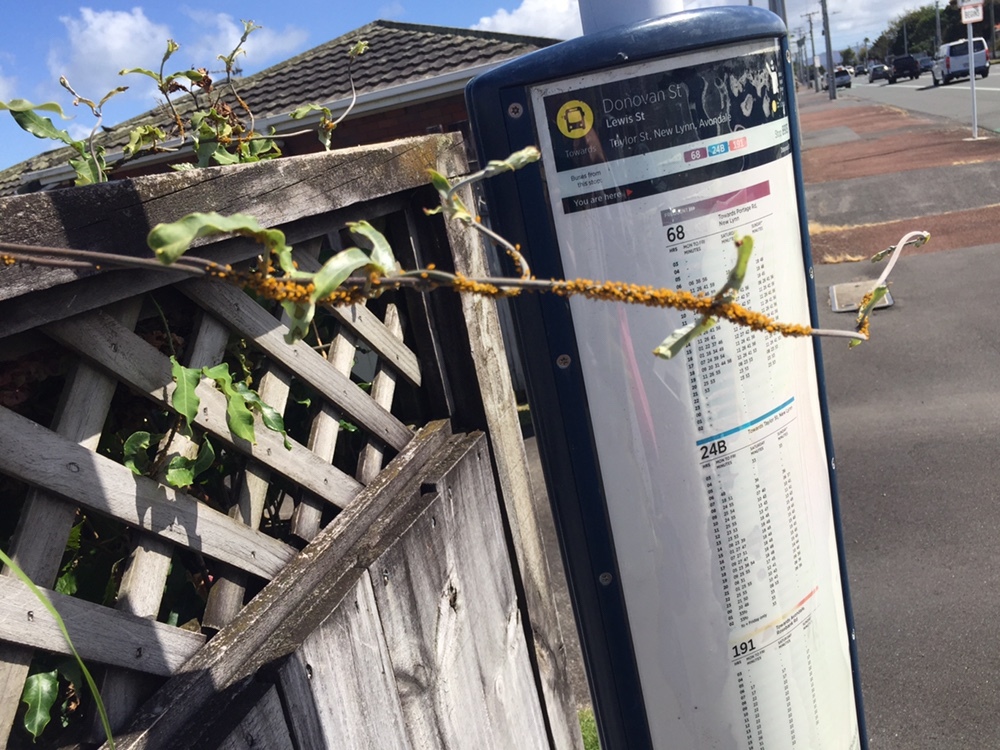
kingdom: Animalia
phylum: Arthropoda
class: Insecta
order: Hemiptera
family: Aphididae
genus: Aphis
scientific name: Aphis nerii
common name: Oleander aphid
